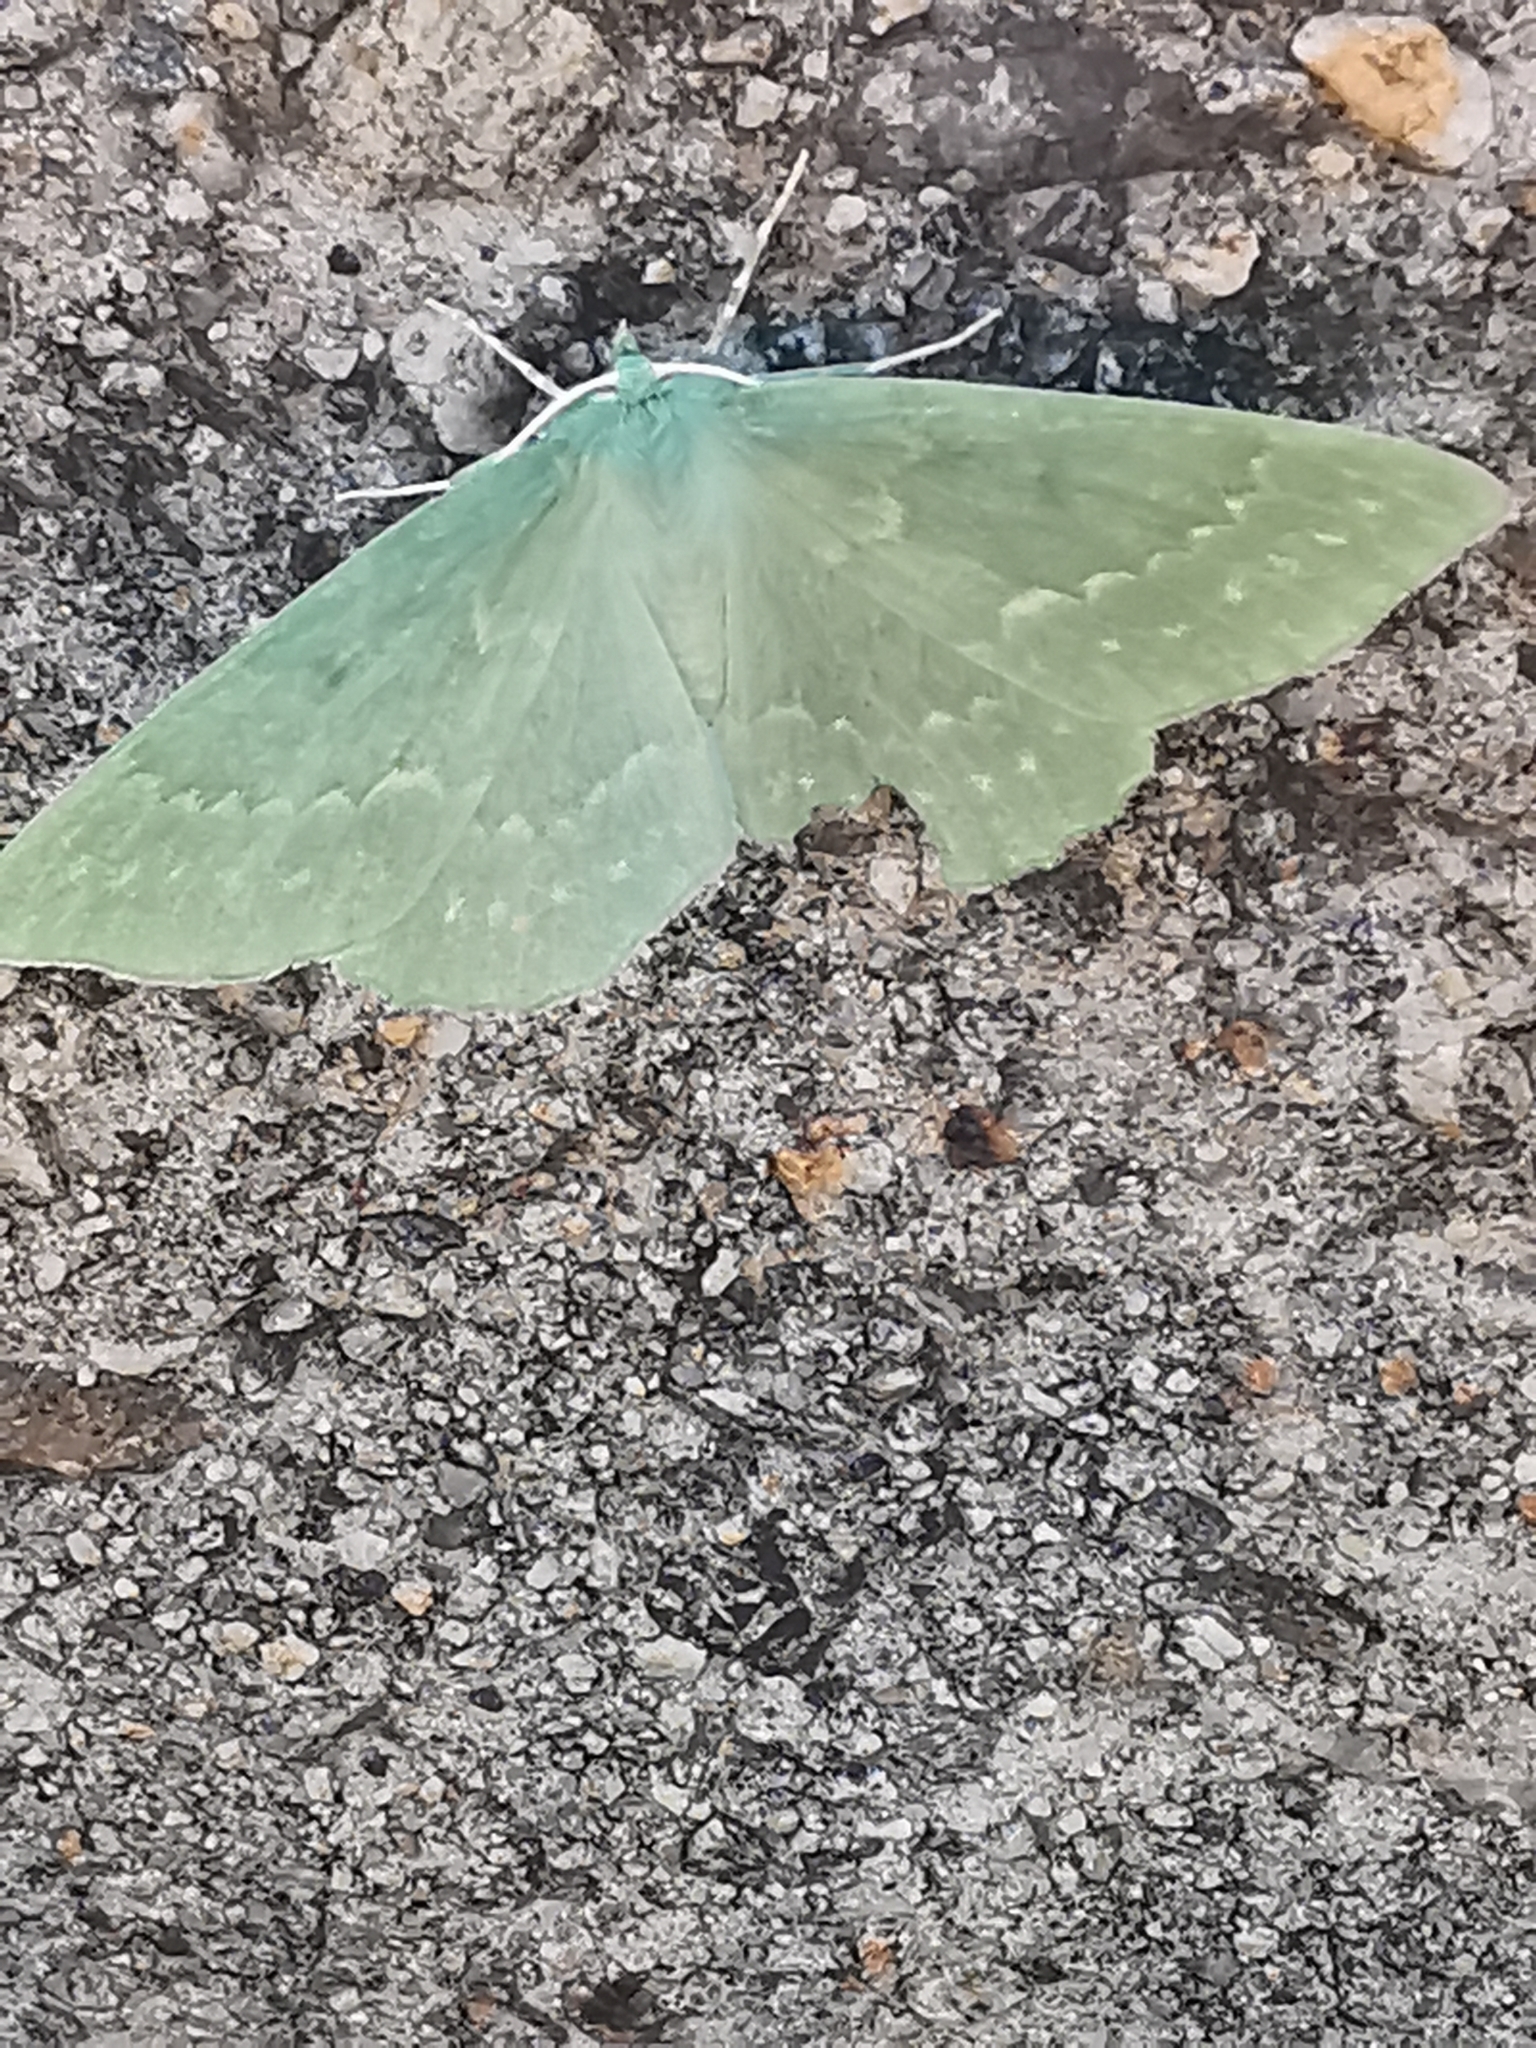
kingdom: Animalia
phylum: Arthropoda
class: Insecta
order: Lepidoptera
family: Geometridae
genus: Geometra
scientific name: Geometra papilionaria
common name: Large emerald
